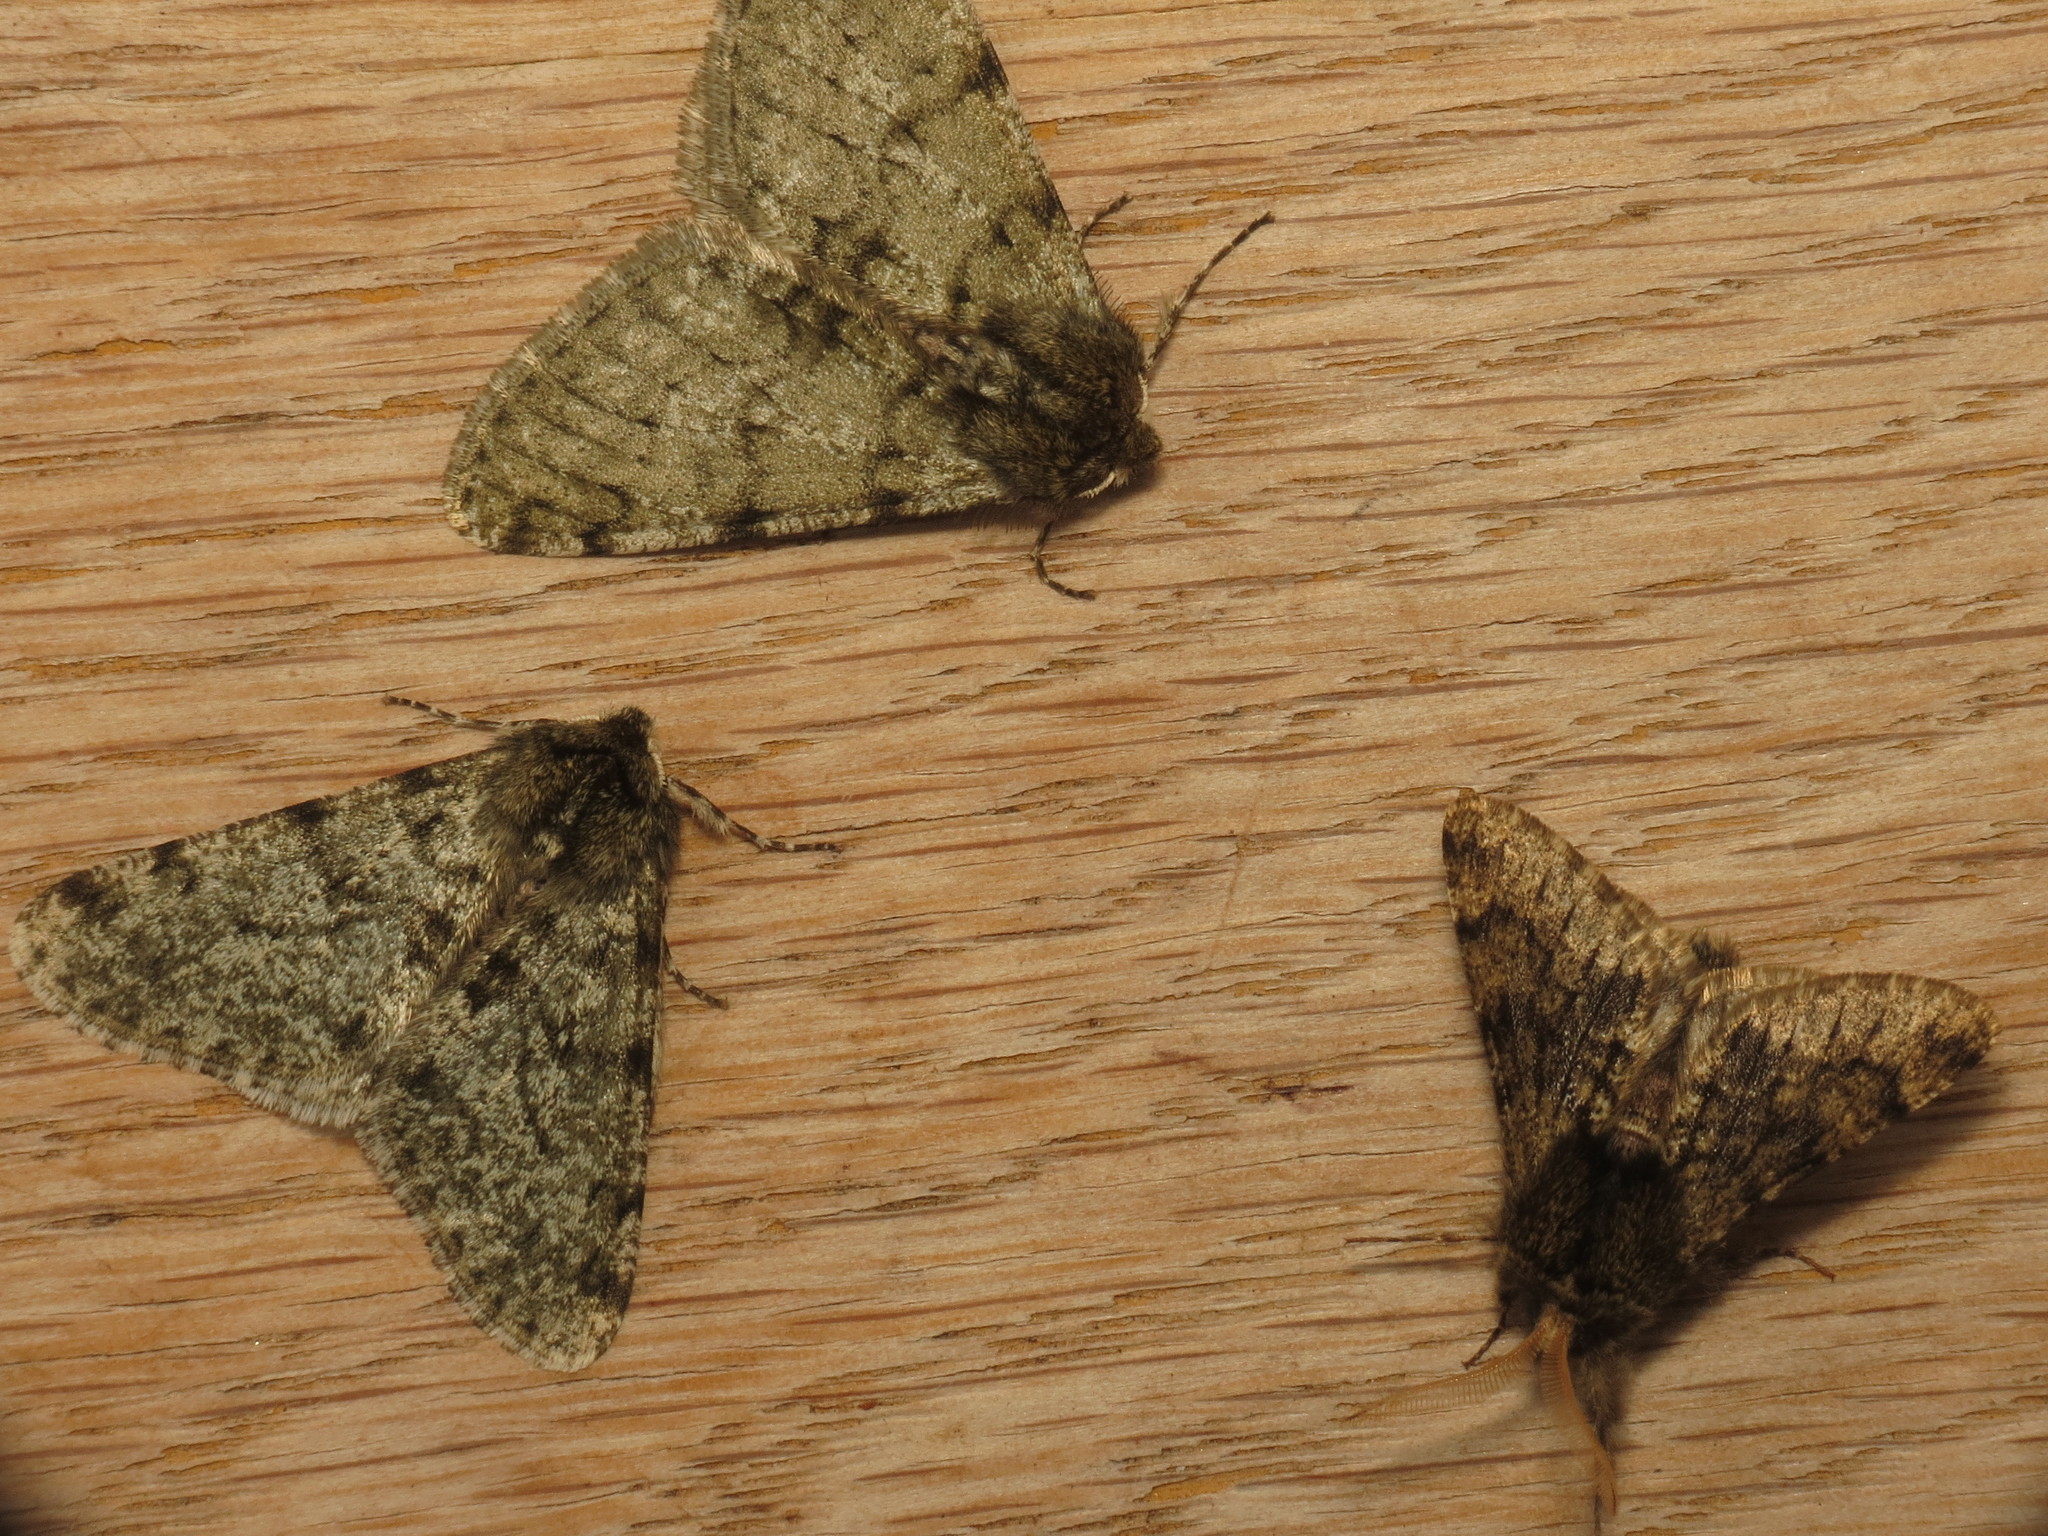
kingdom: Animalia
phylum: Arthropoda
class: Insecta
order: Lepidoptera
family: Geometridae
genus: Apocheima
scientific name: Apocheima hispidaria
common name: Small brindled beauty
